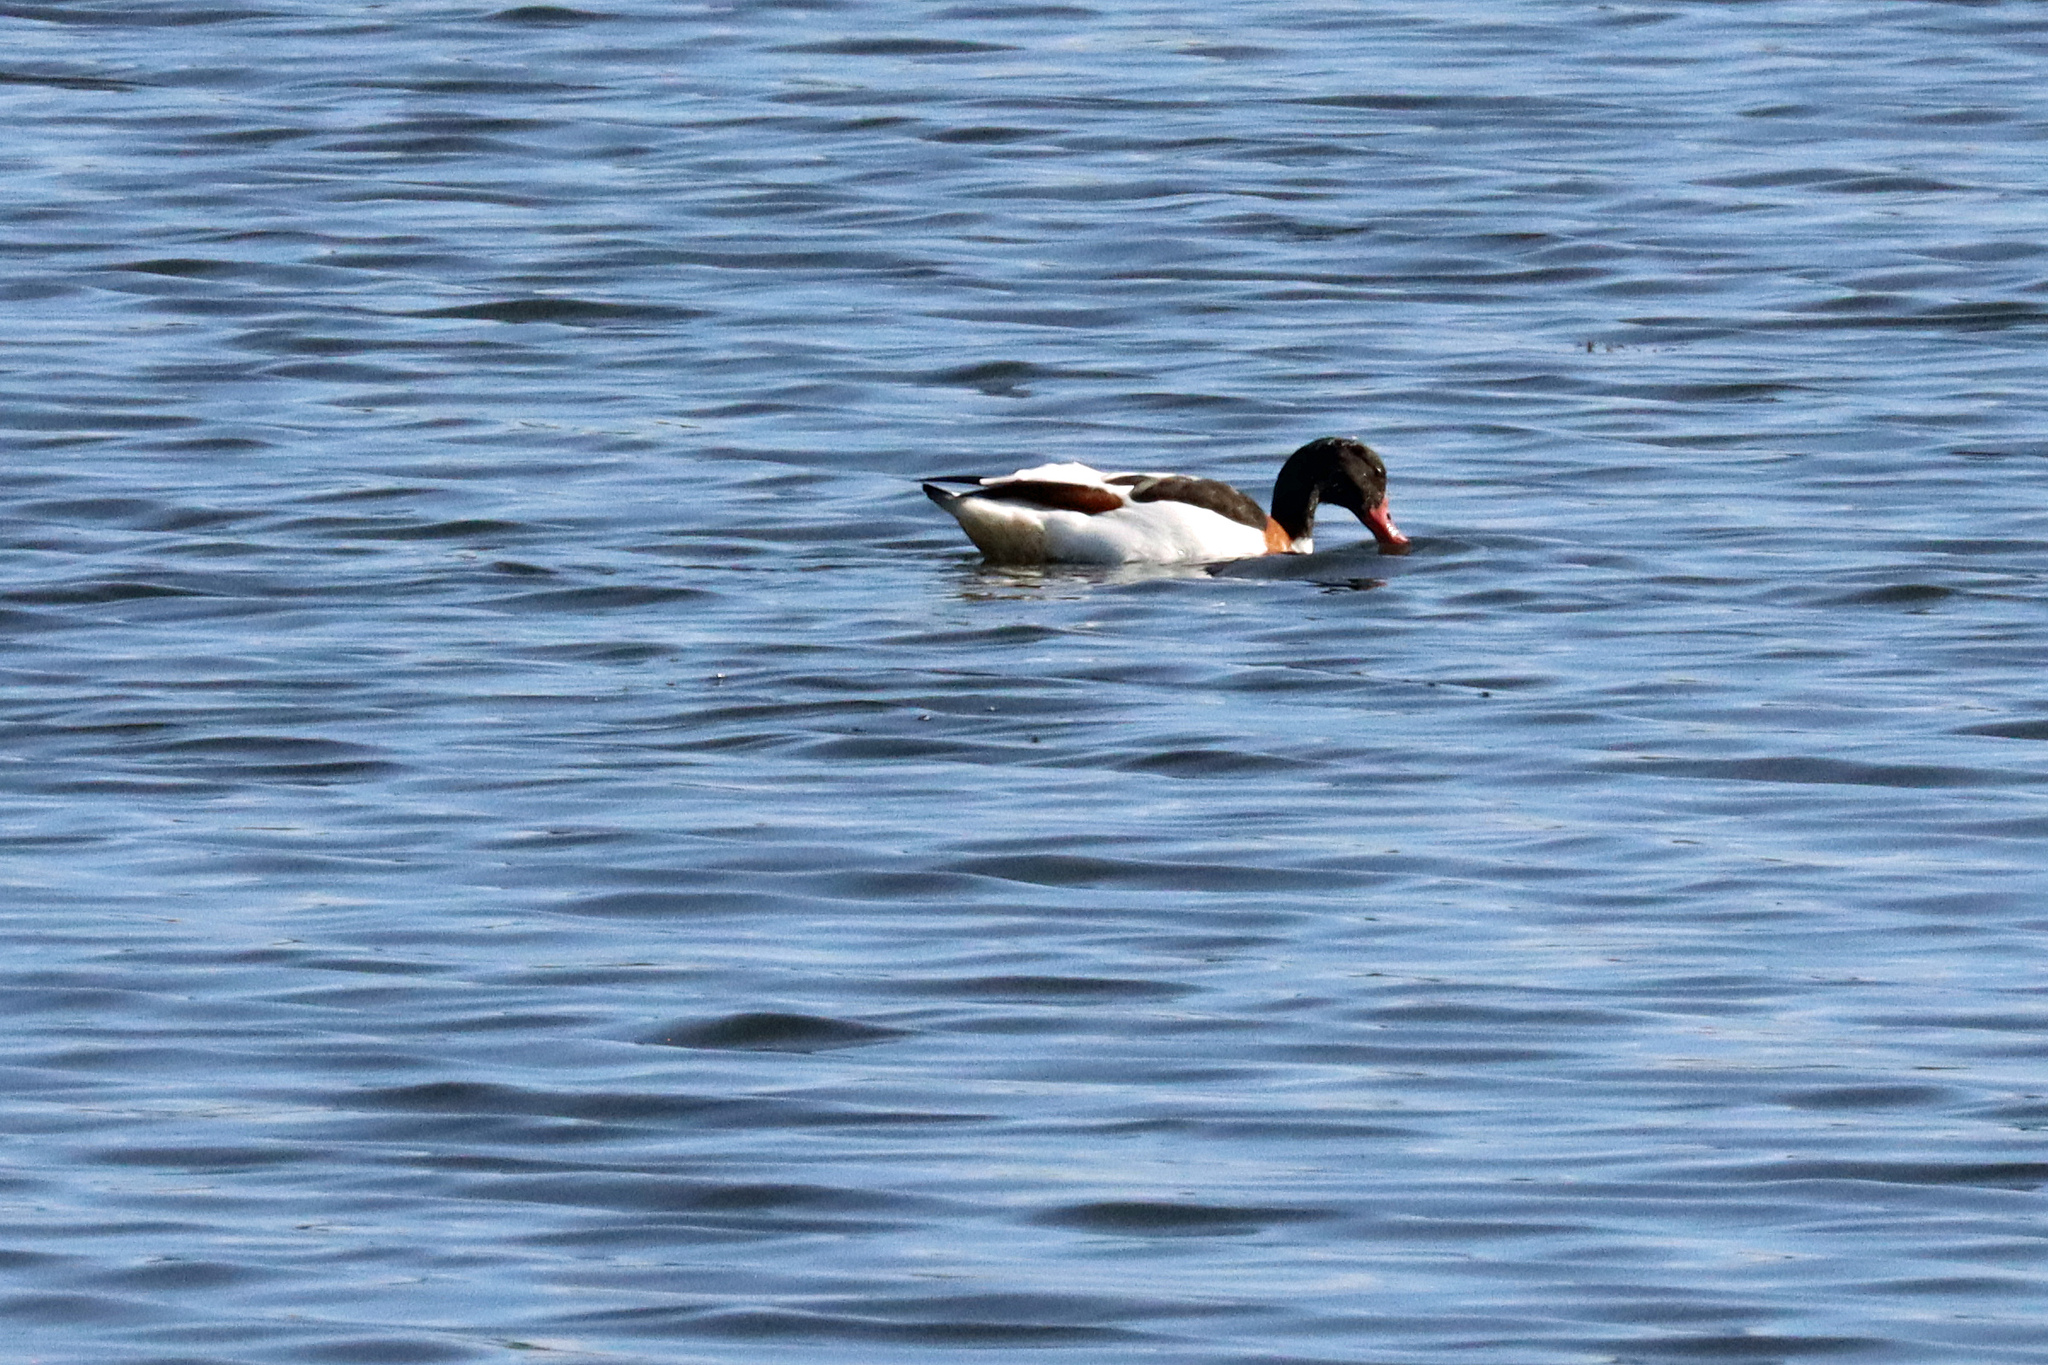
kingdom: Animalia
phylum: Chordata
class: Aves
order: Anseriformes
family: Anatidae
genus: Tadorna
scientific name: Tadorna tadorna
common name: Common shelduck
